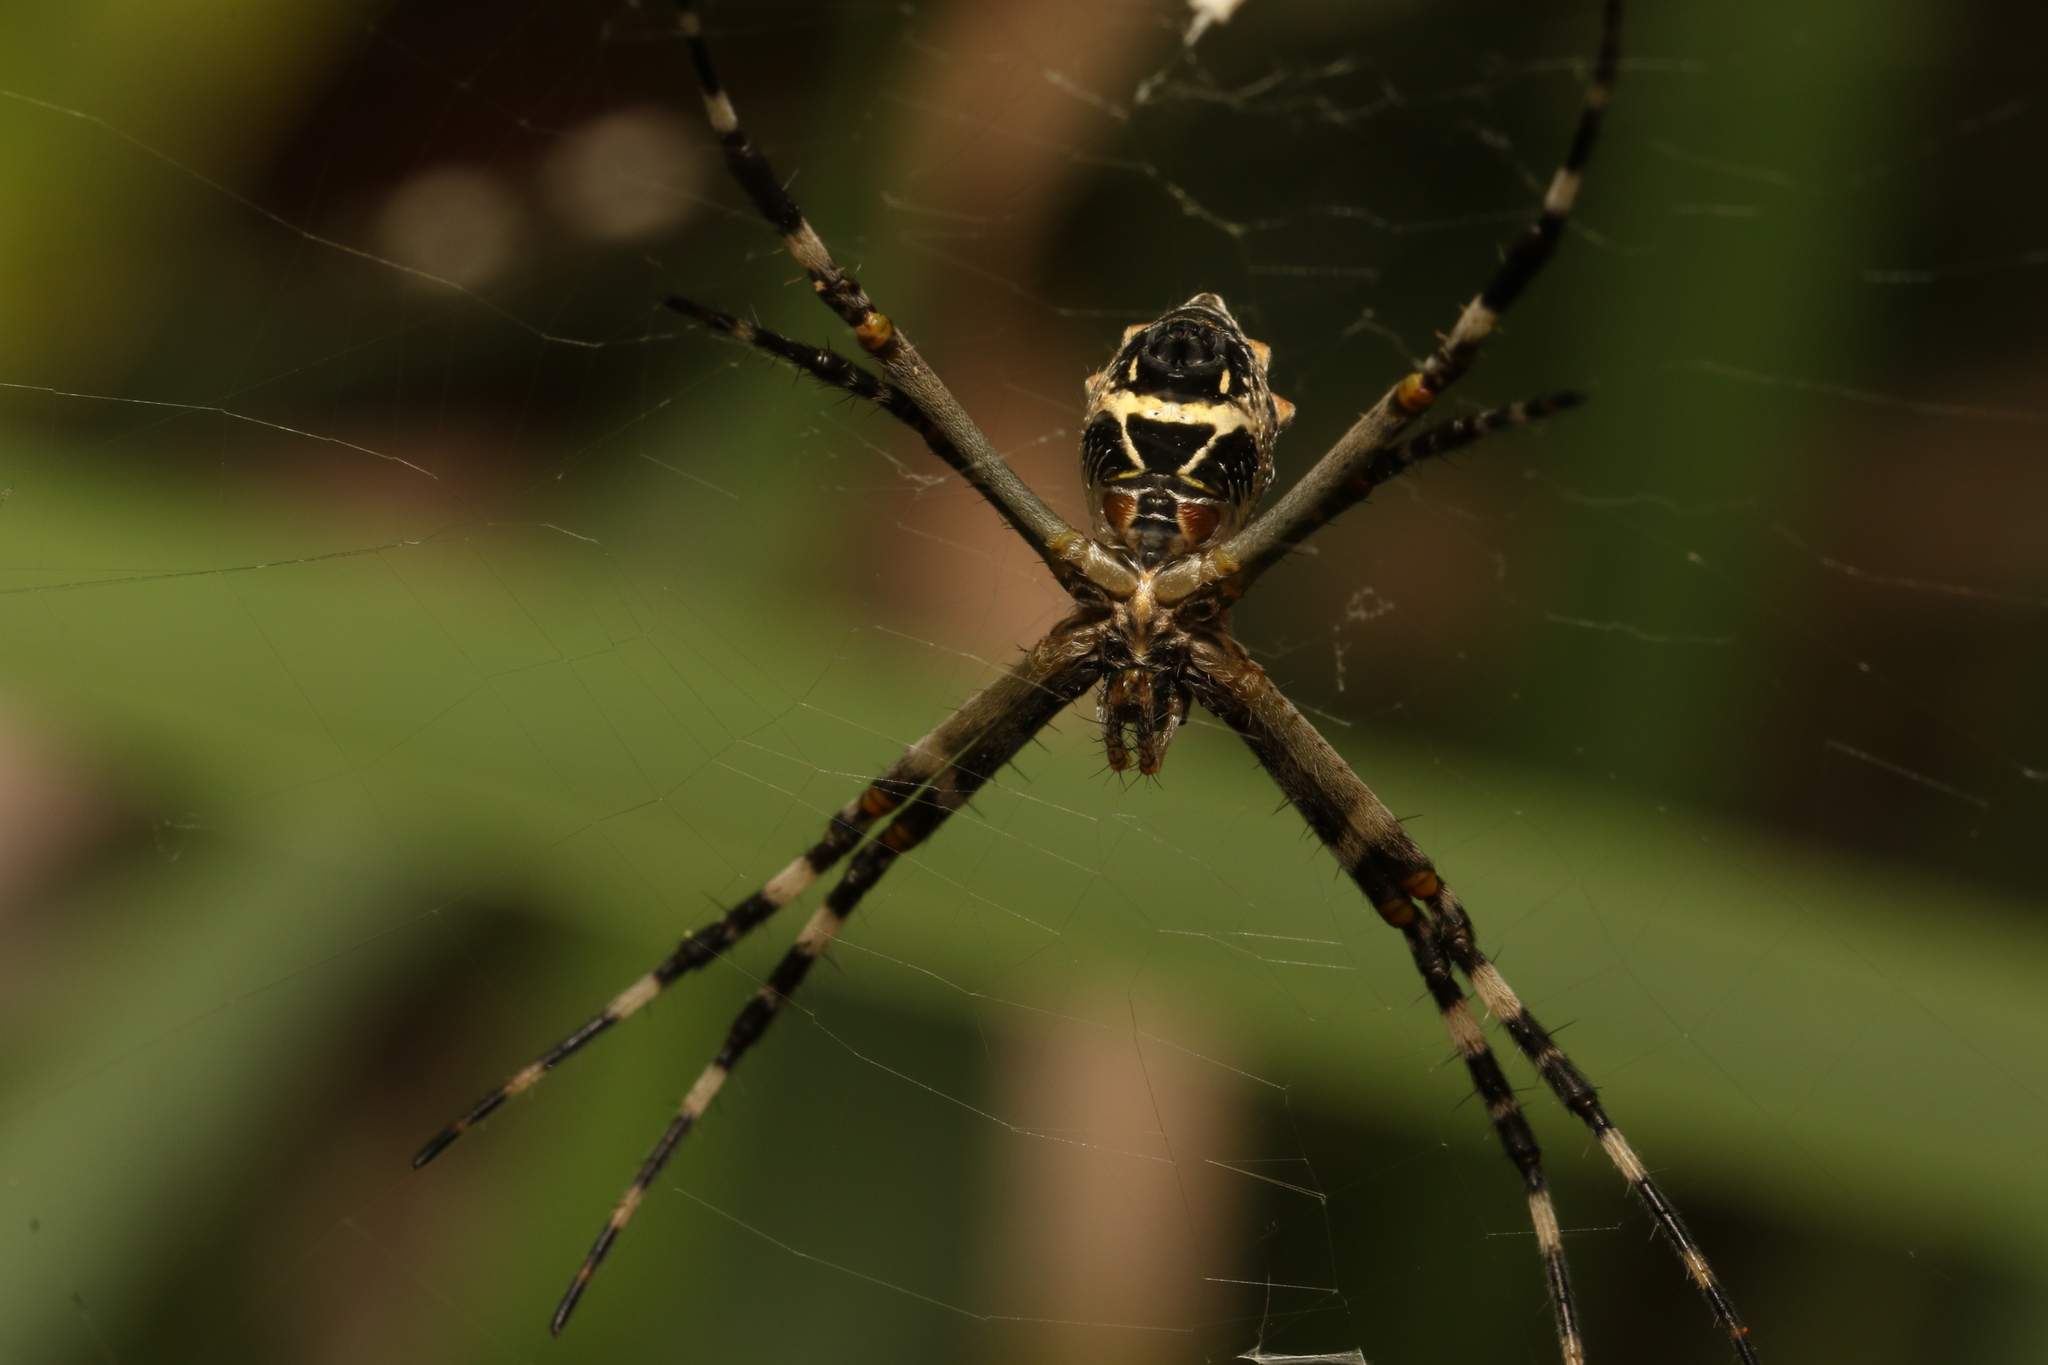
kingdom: Animalia
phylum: Arthropoda
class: Arachnida
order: Araneae
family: Araneidae
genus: Argiope
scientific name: Argiope argentata
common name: Orb weavers
